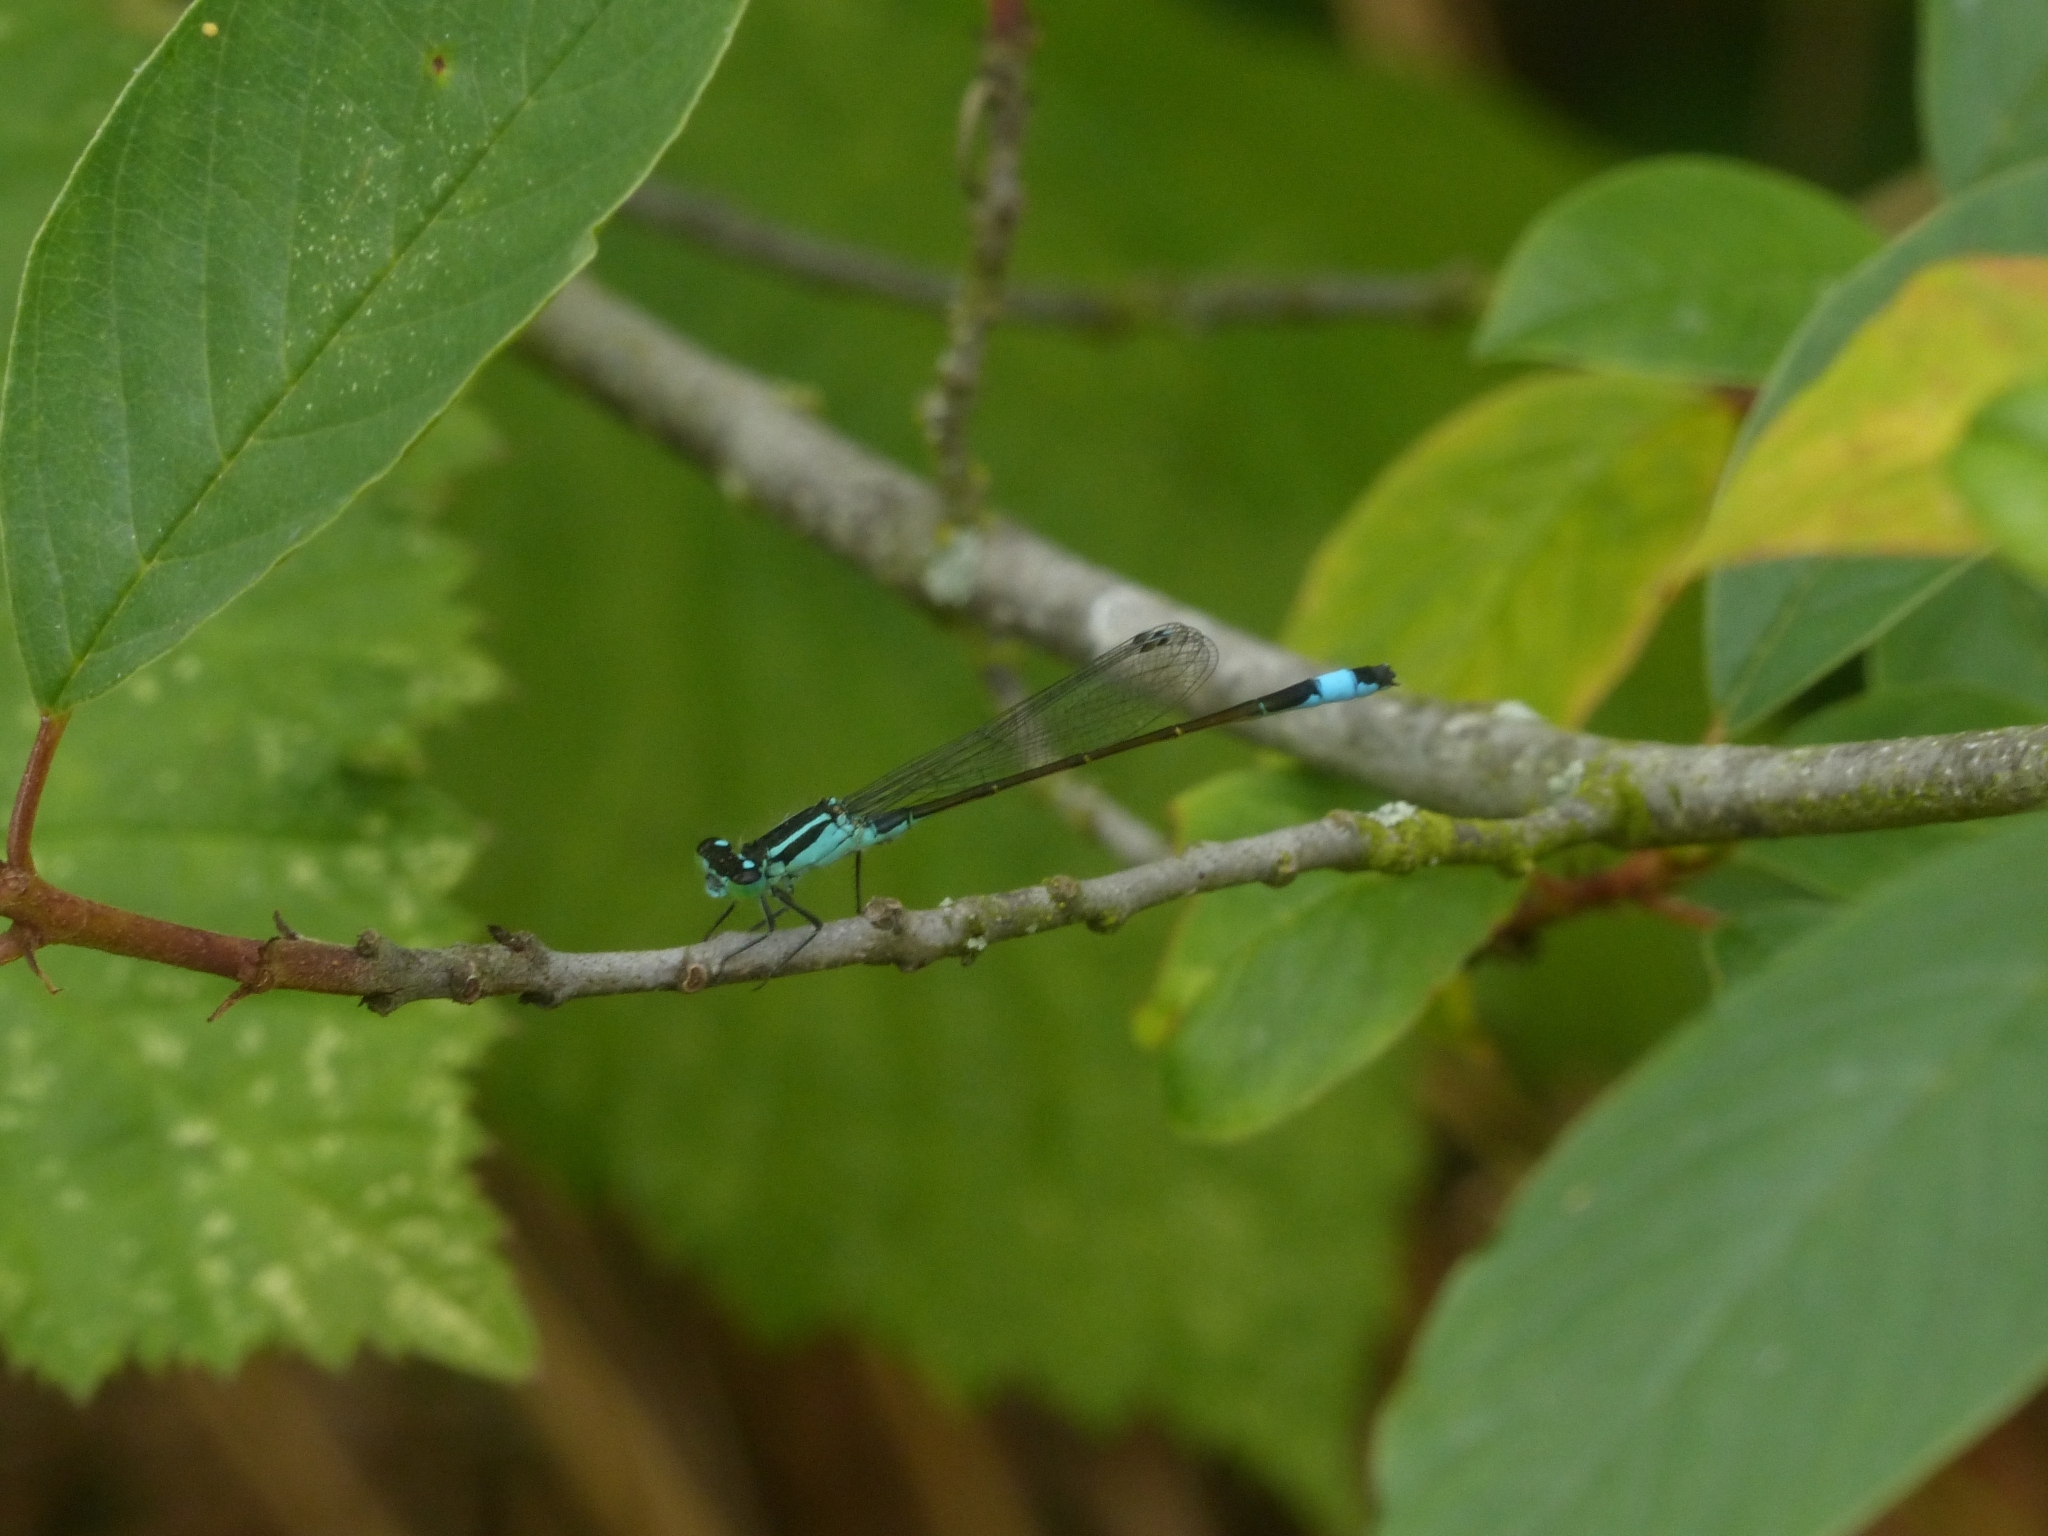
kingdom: Animalia
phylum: Arthropoda
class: Insecta
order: Odonata
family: Coenagrionidae
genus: Ischnura
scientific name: Ischnura elegans
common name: Blue-tailed damselfly
